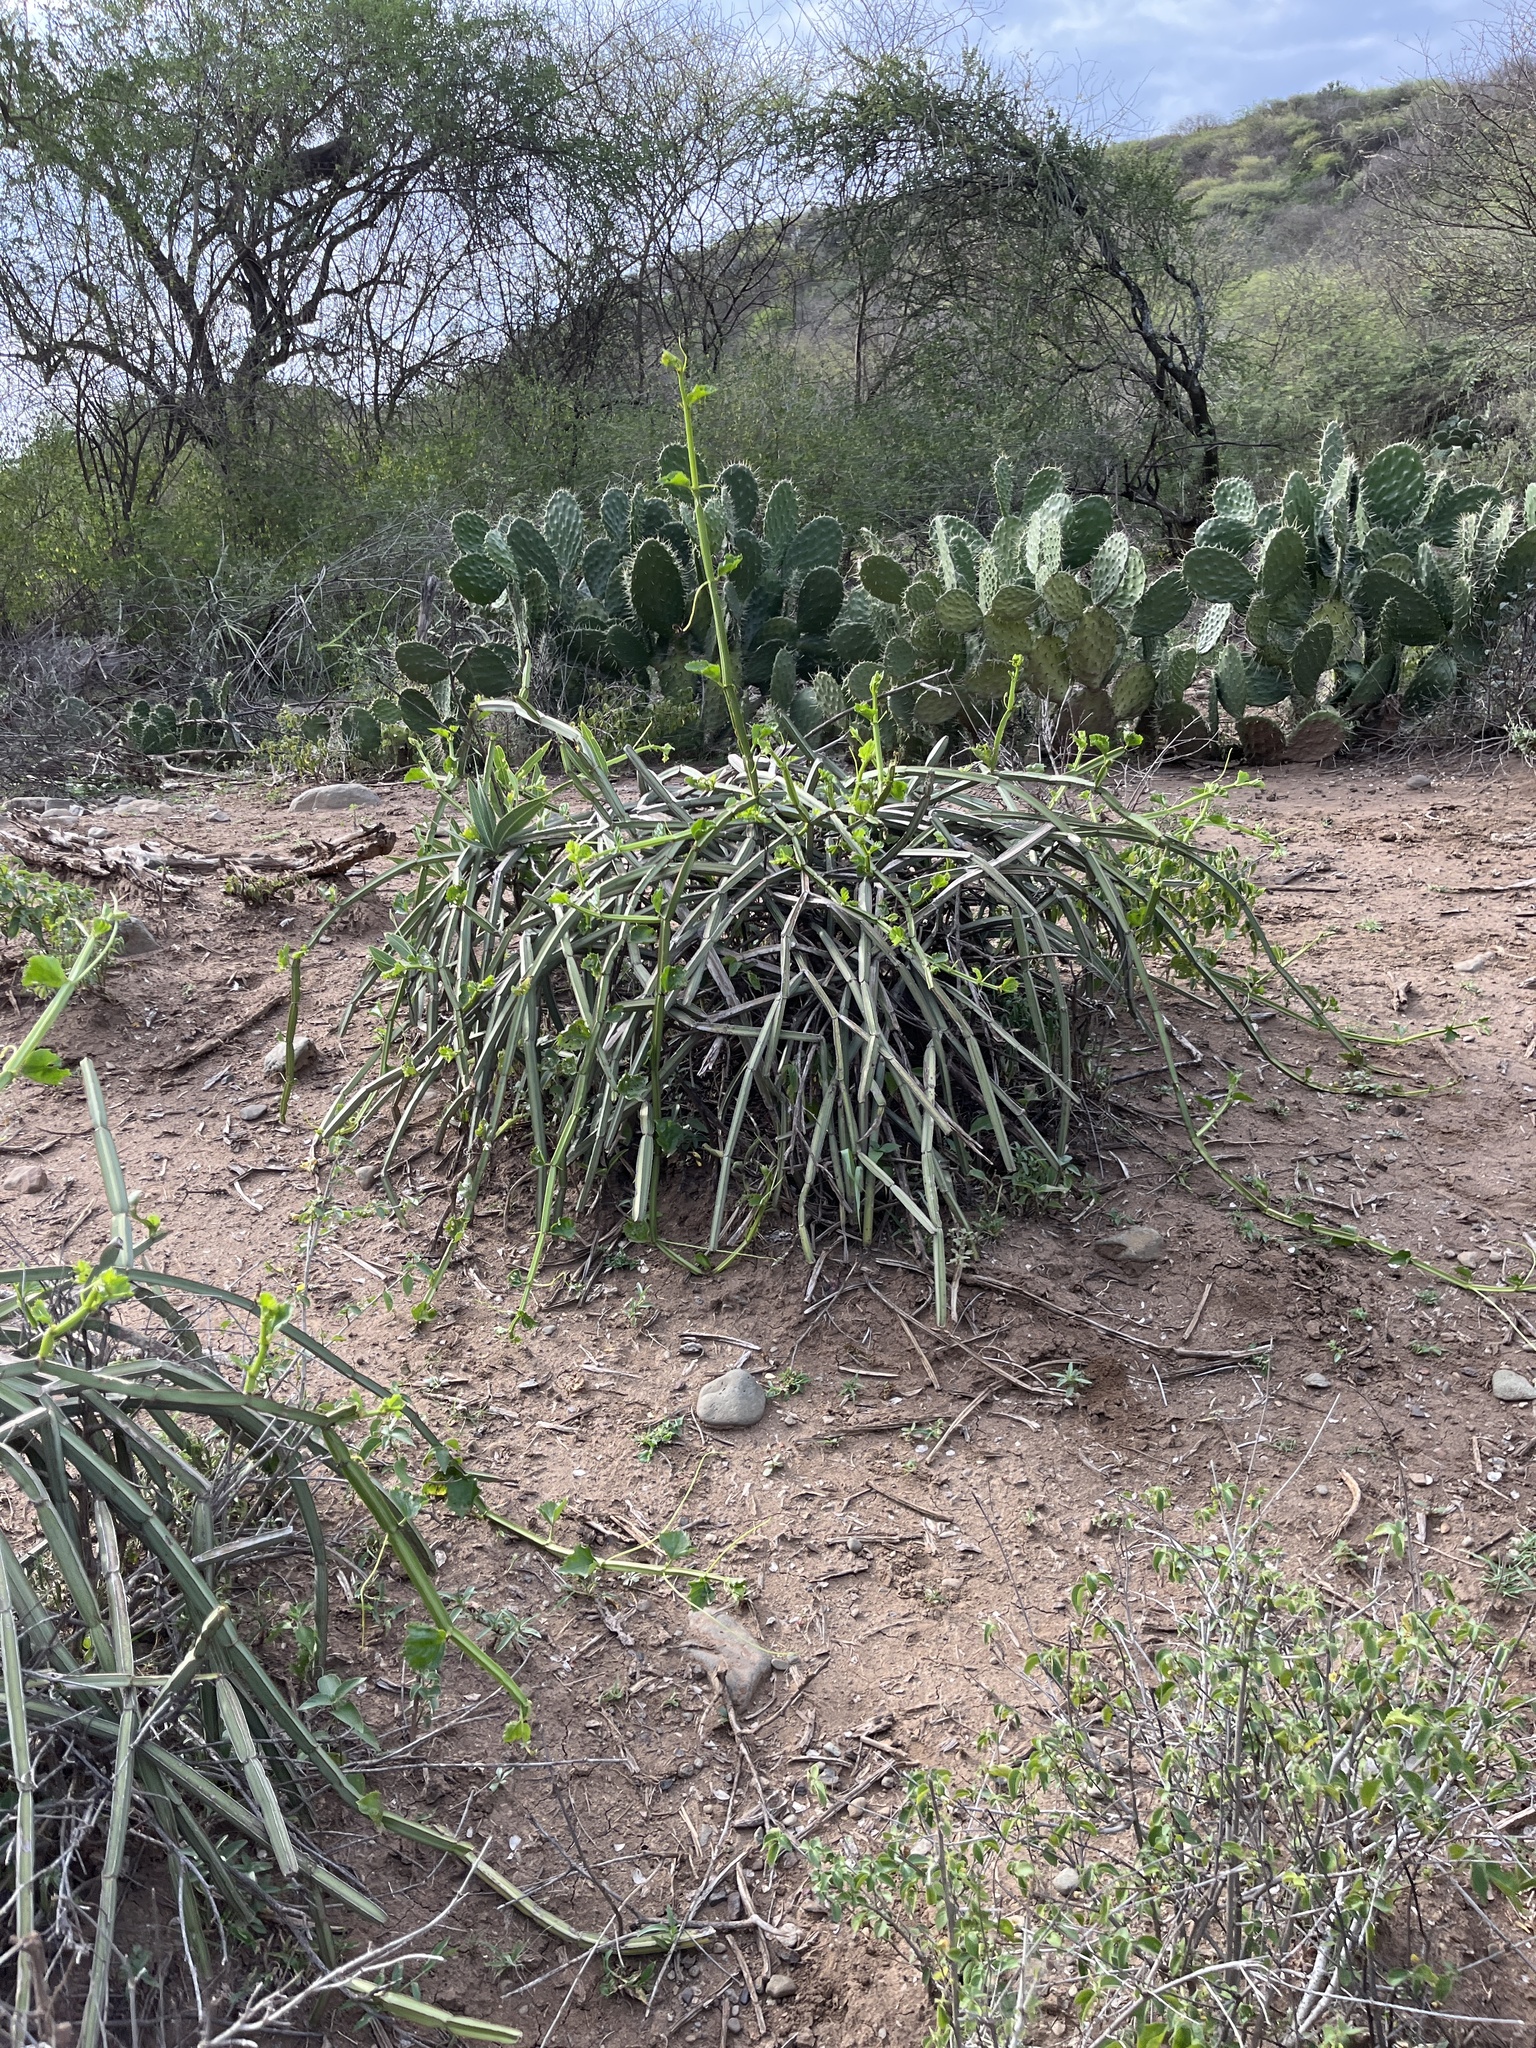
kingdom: Plantae
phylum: Tracheophyta
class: Magnoliopsida
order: Vitales
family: Vitaceae
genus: Cissus
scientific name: Cissus quadrangularis
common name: Veldt-grape
